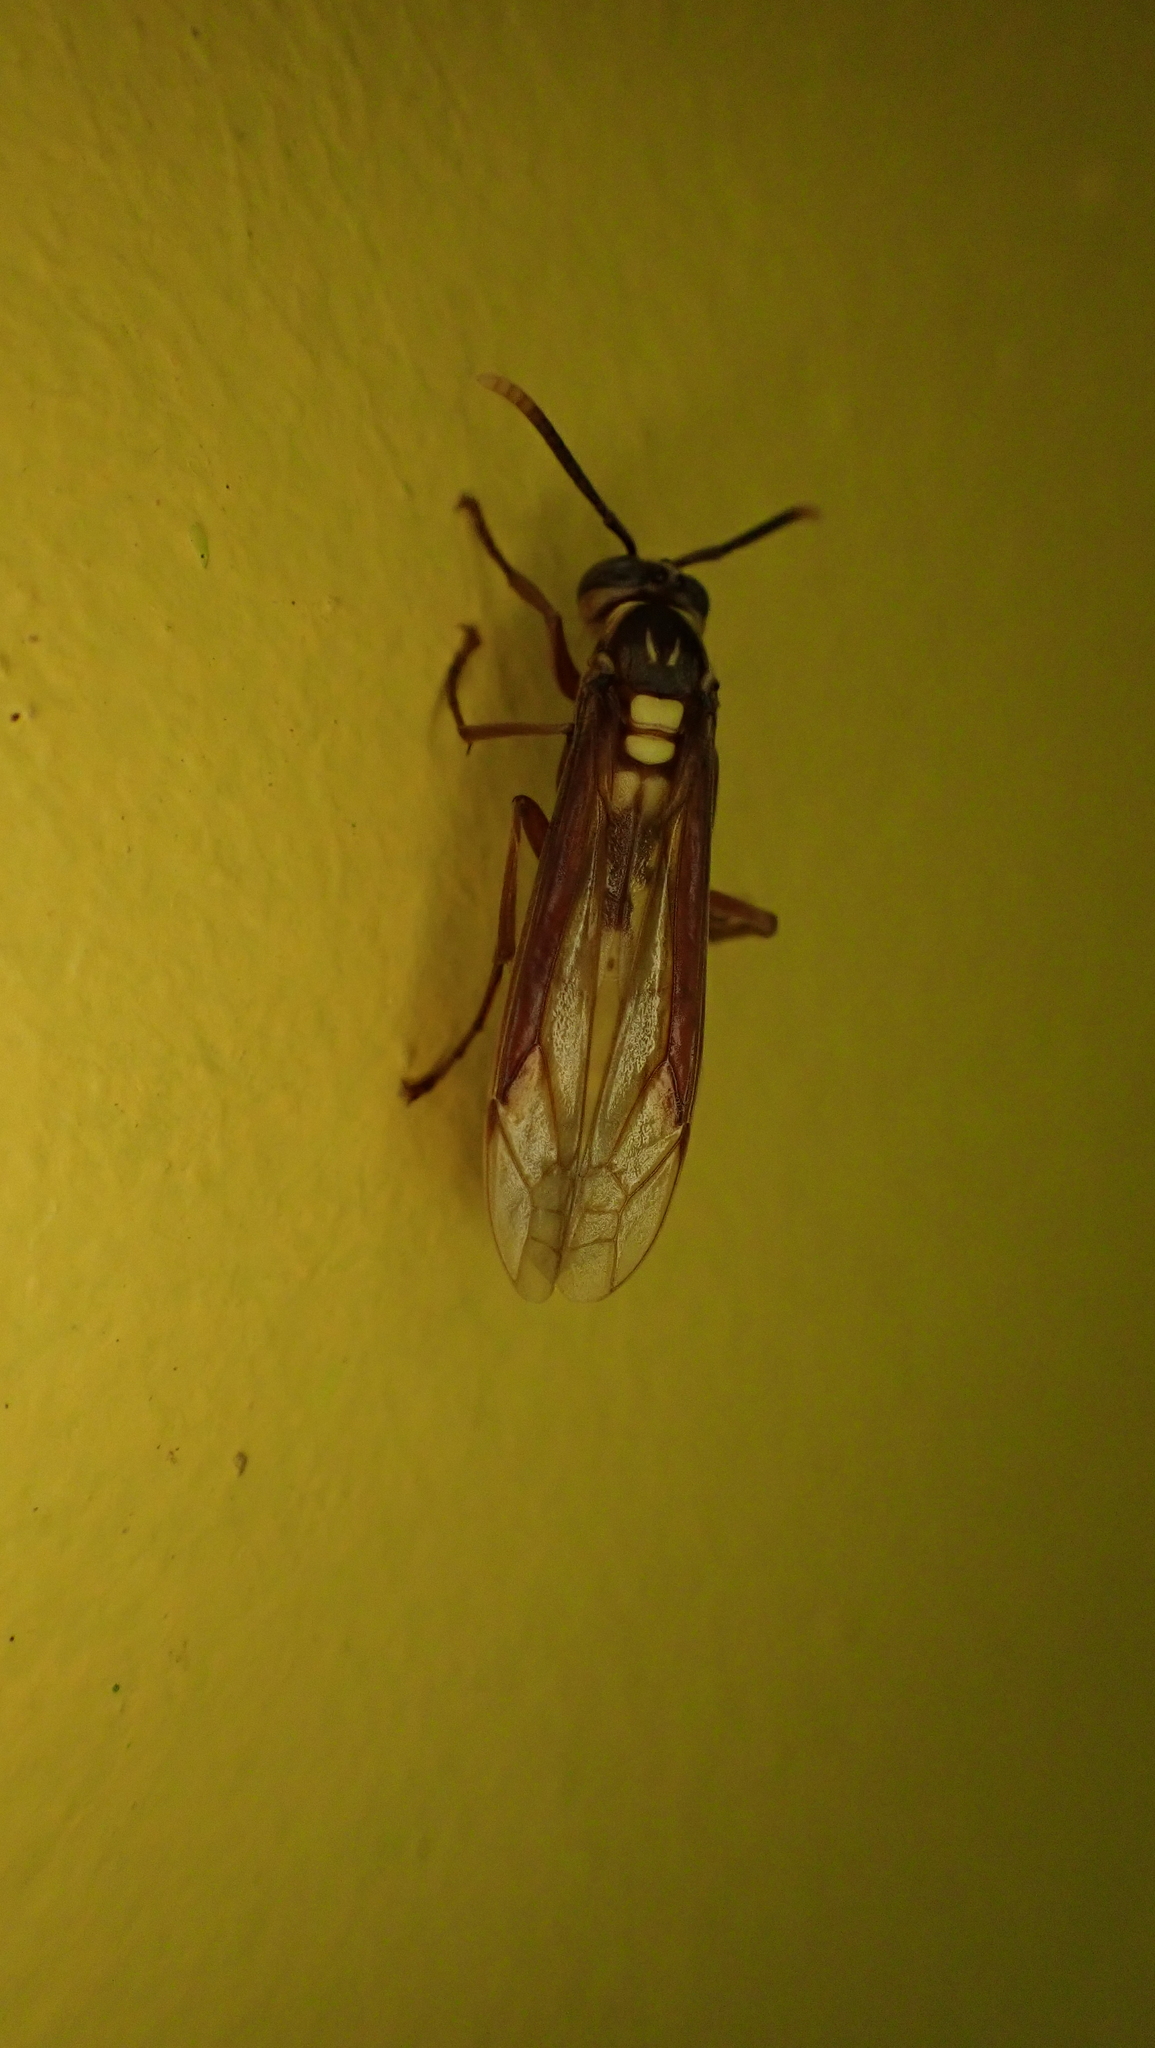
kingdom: Animalia
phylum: Arthropoda
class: Insecta
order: Hymenoptera
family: Vespidae
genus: Apoica
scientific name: Apoica pallens
